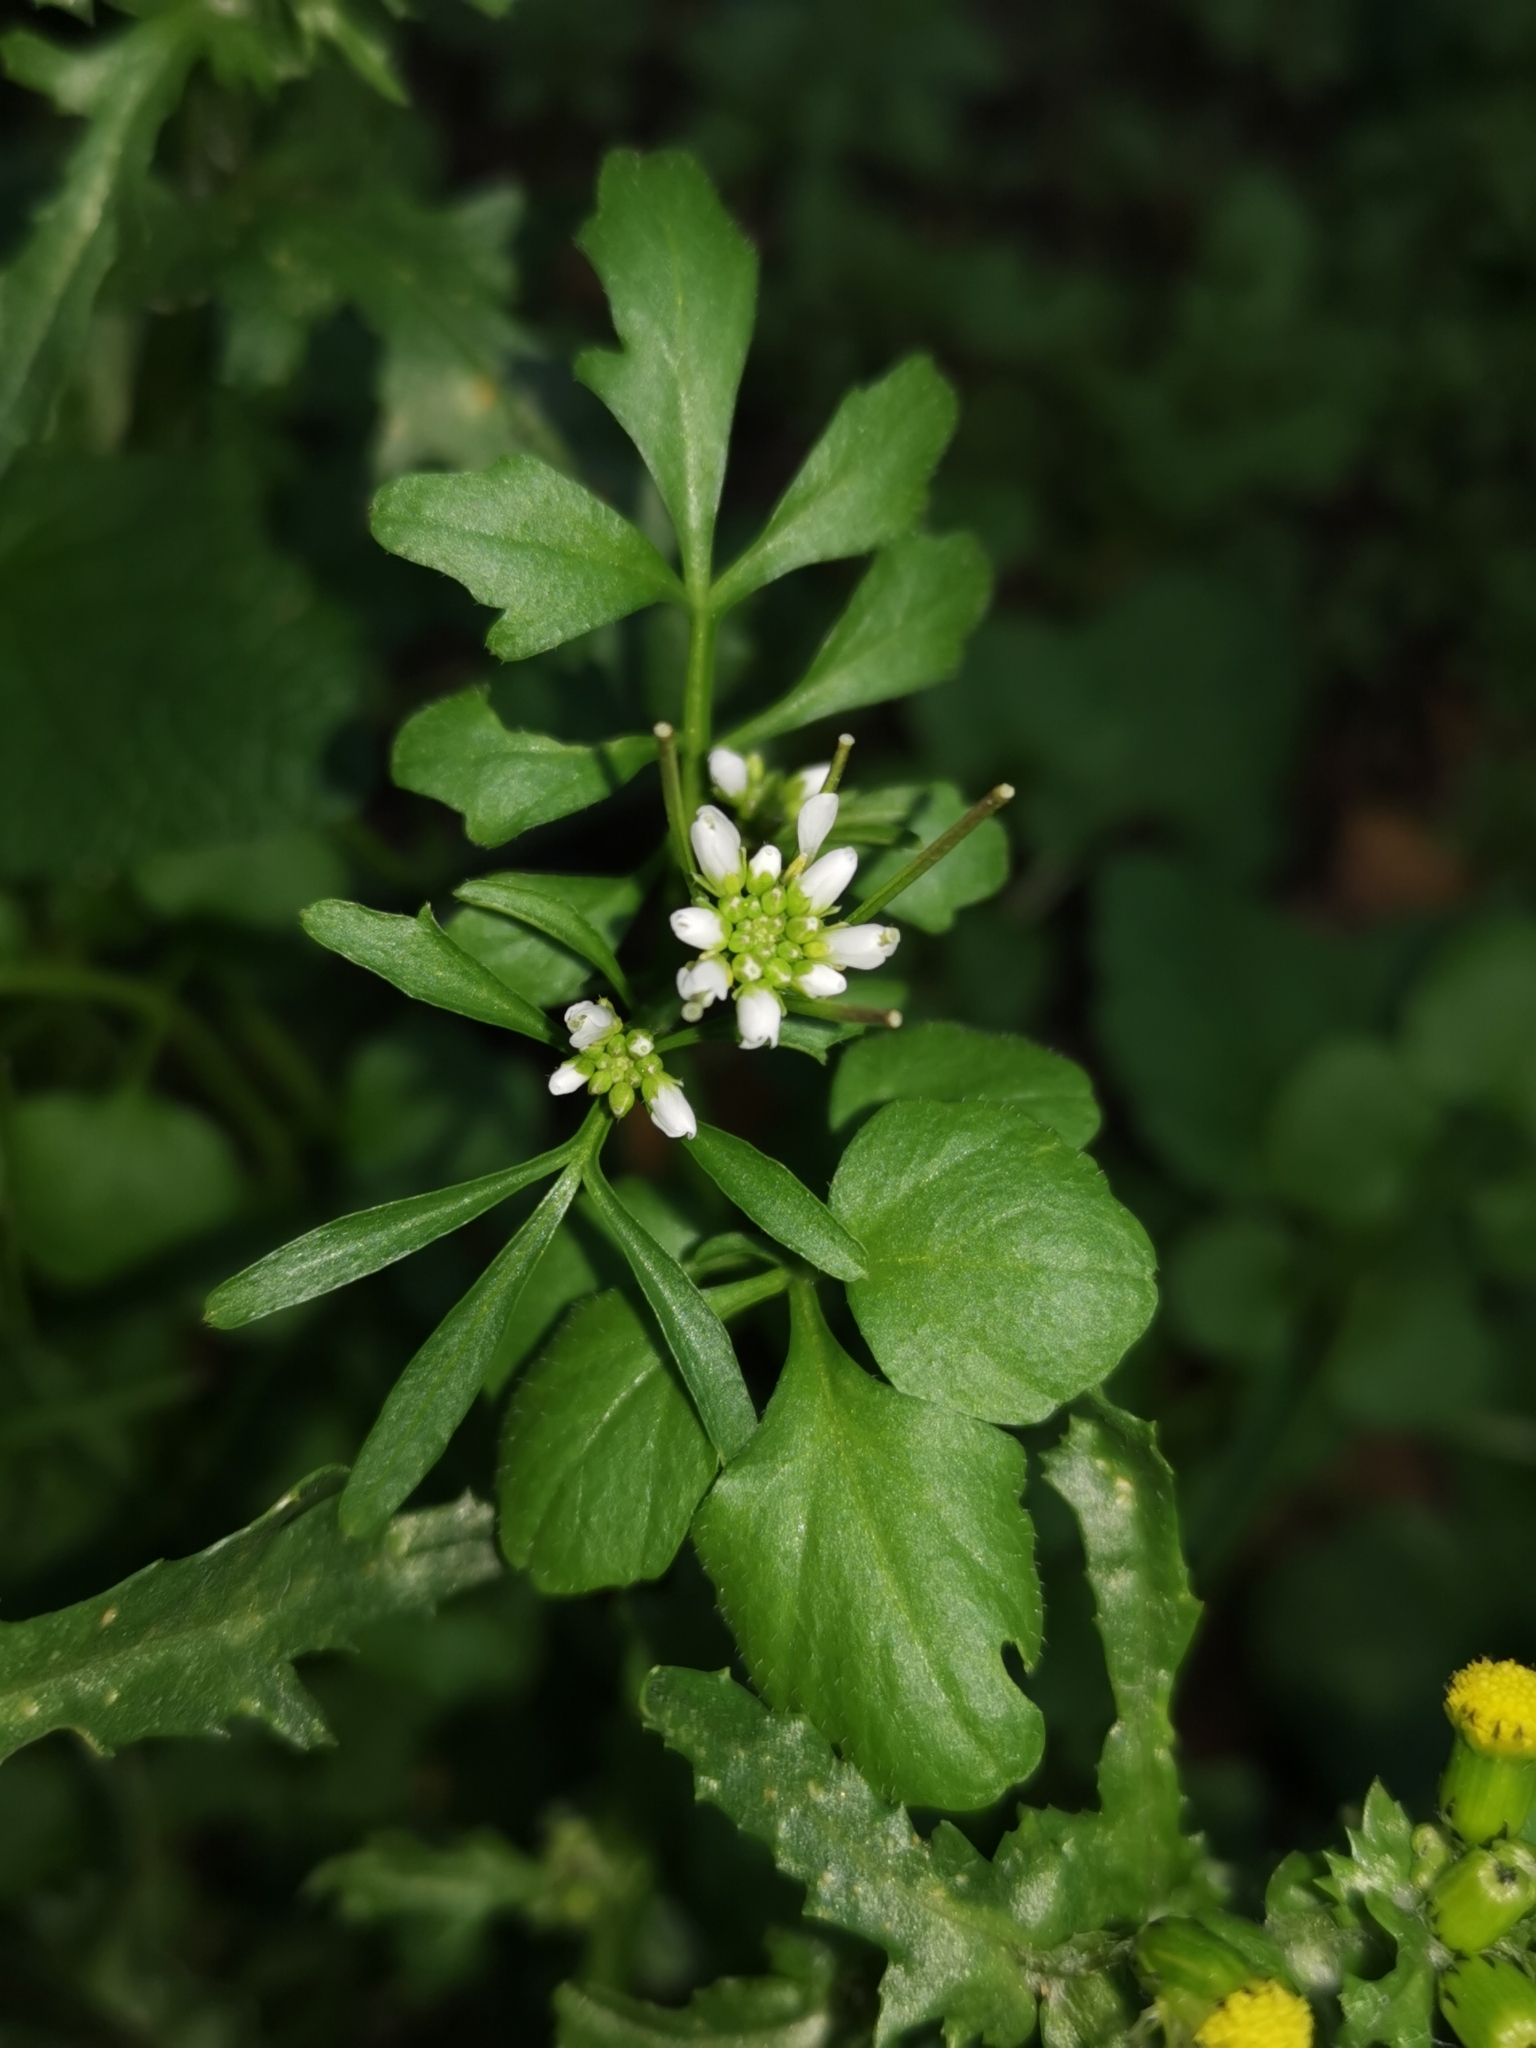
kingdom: Plantae
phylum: Tracheophyta
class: Magnoliopsida
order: Brassicales
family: Brassicaceae
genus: Cardamine
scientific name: Cardamine hirsuta
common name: Hairy bittercress
